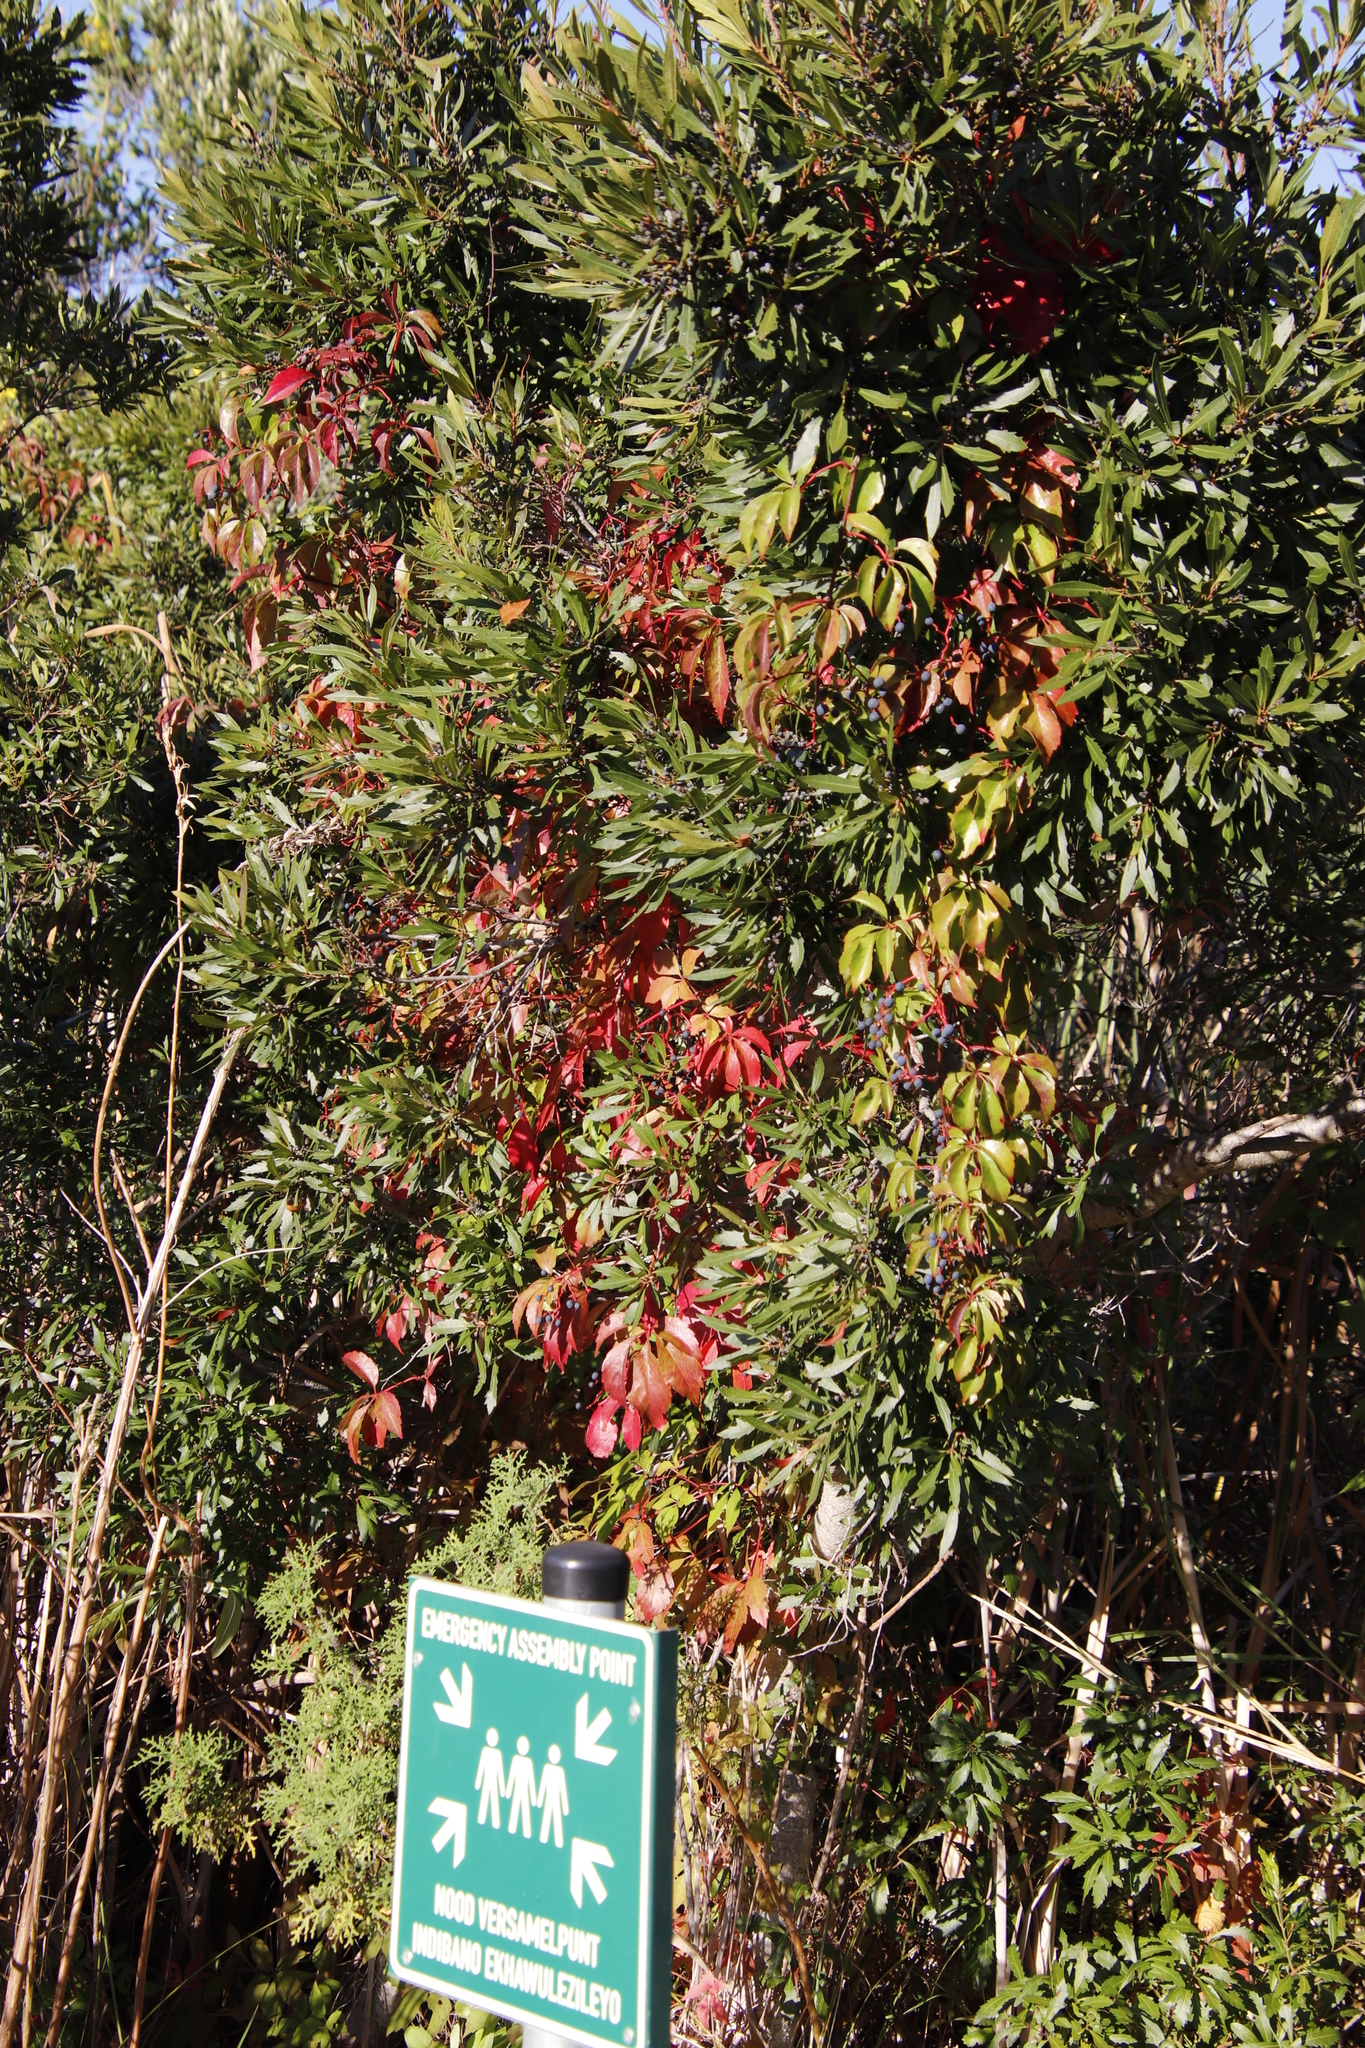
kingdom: Plantae
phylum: Tracheophyta
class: Magnoliopsida
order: Vitales
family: Vitaceae
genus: Parthenocissus
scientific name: Parthenocissus quinquefolia
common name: Virginia-creeper
